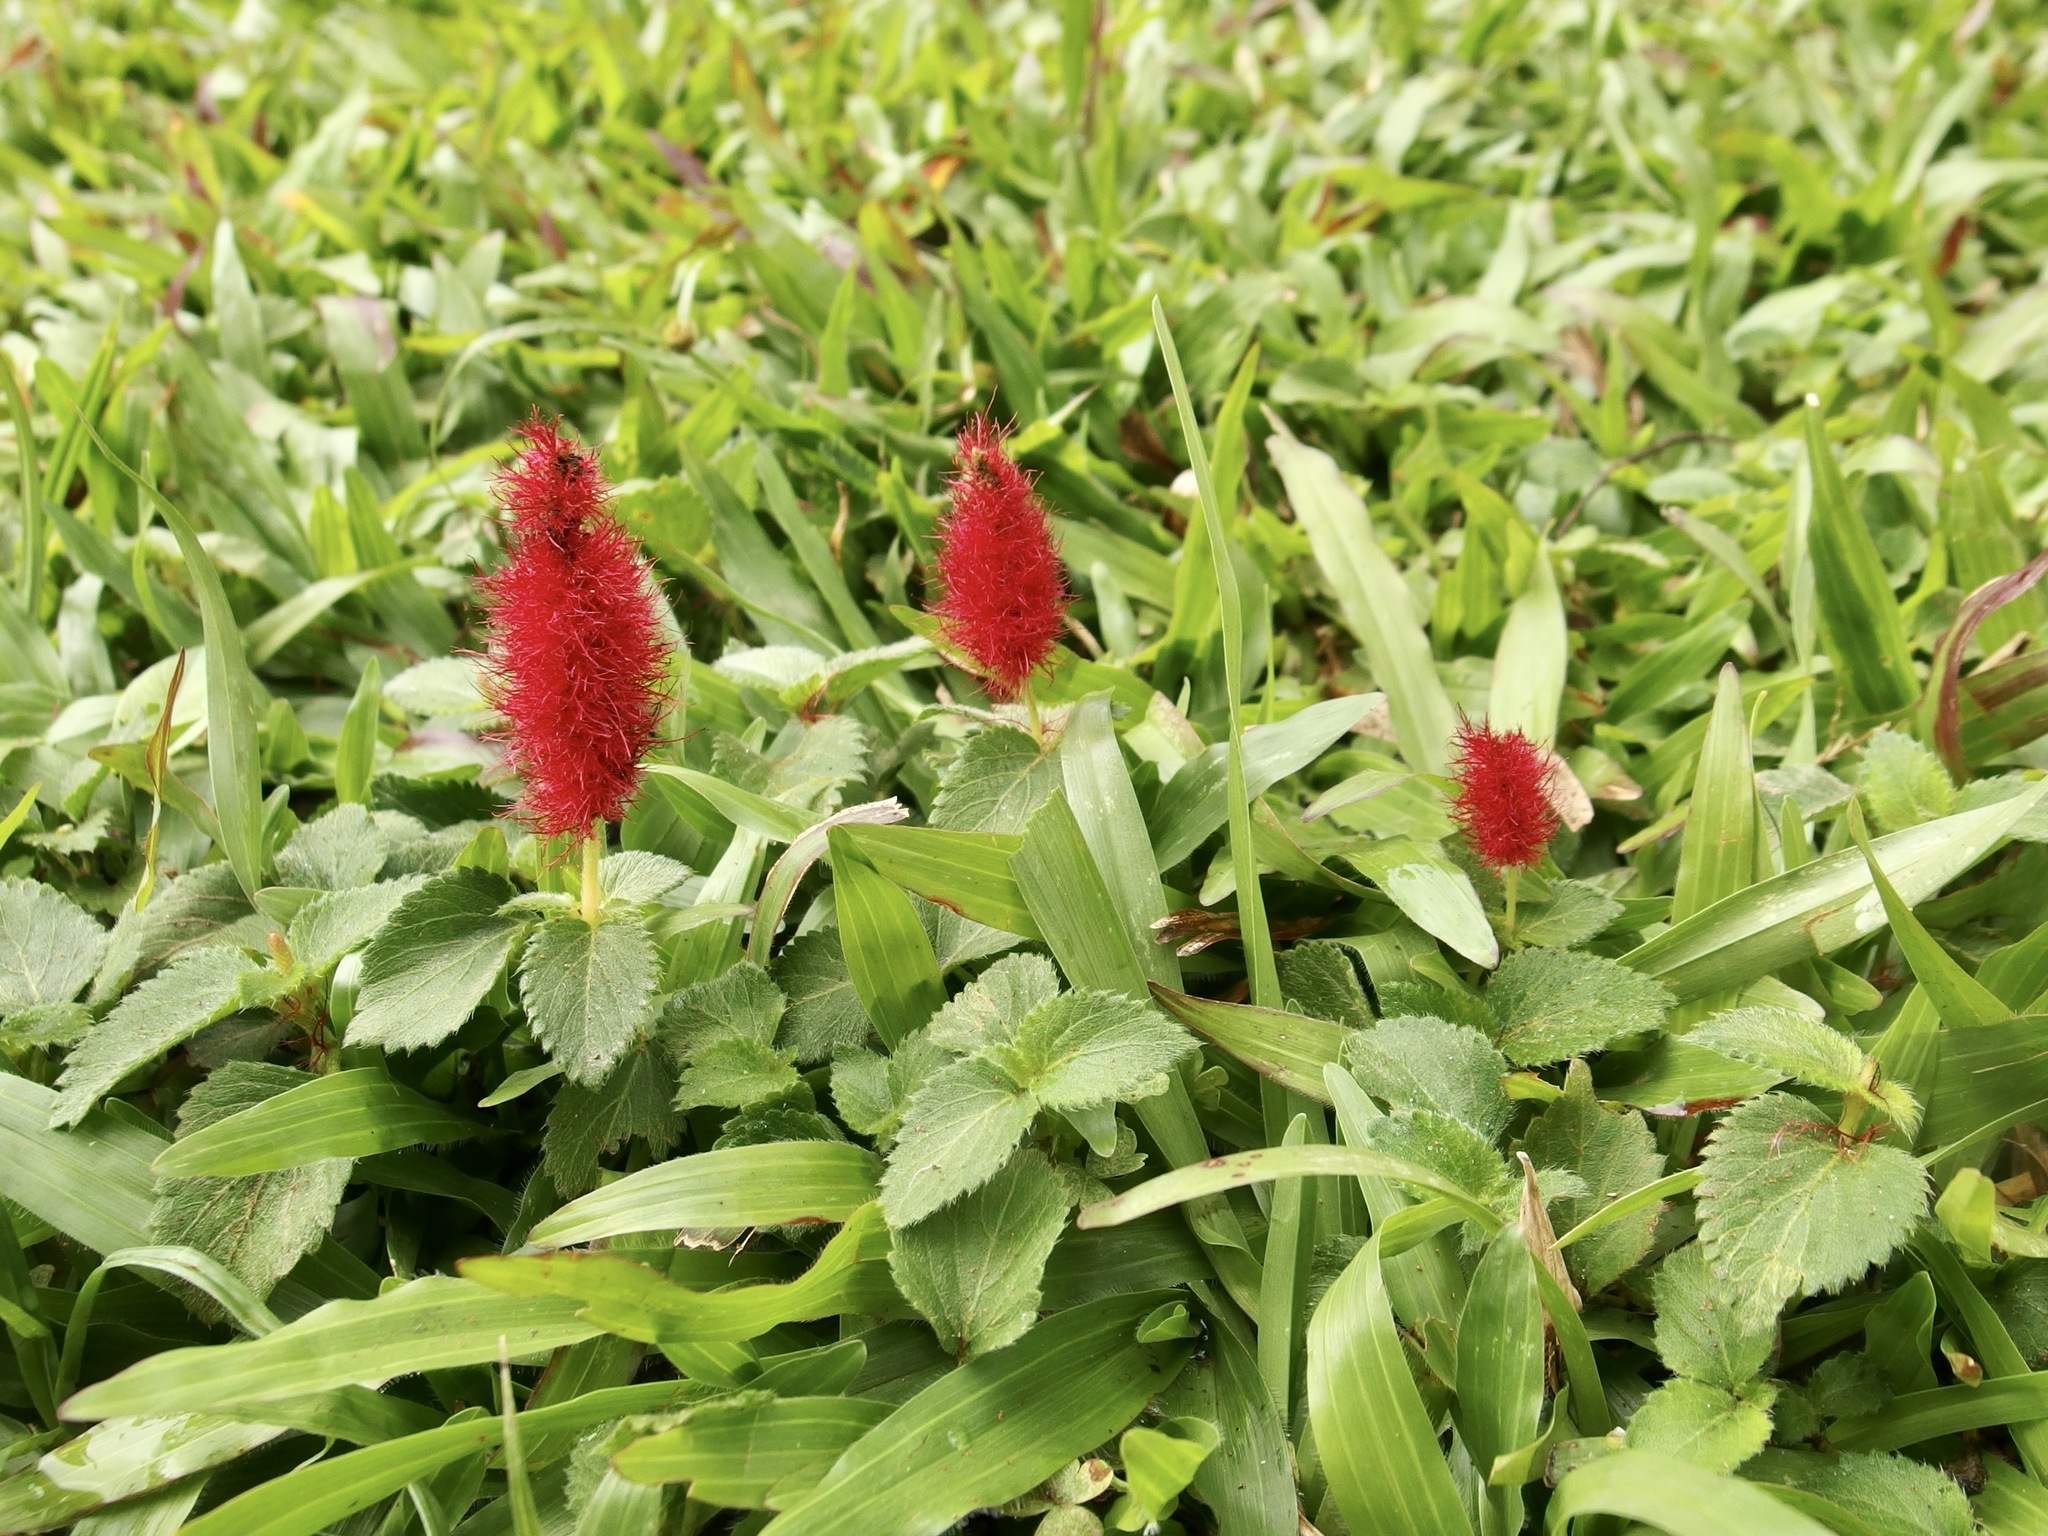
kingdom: Plantae
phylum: Tracheophyta
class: Magnoliopsida
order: Malpighiales
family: Euphorbiaceae
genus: Acalypha
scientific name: Acalypha pendula
